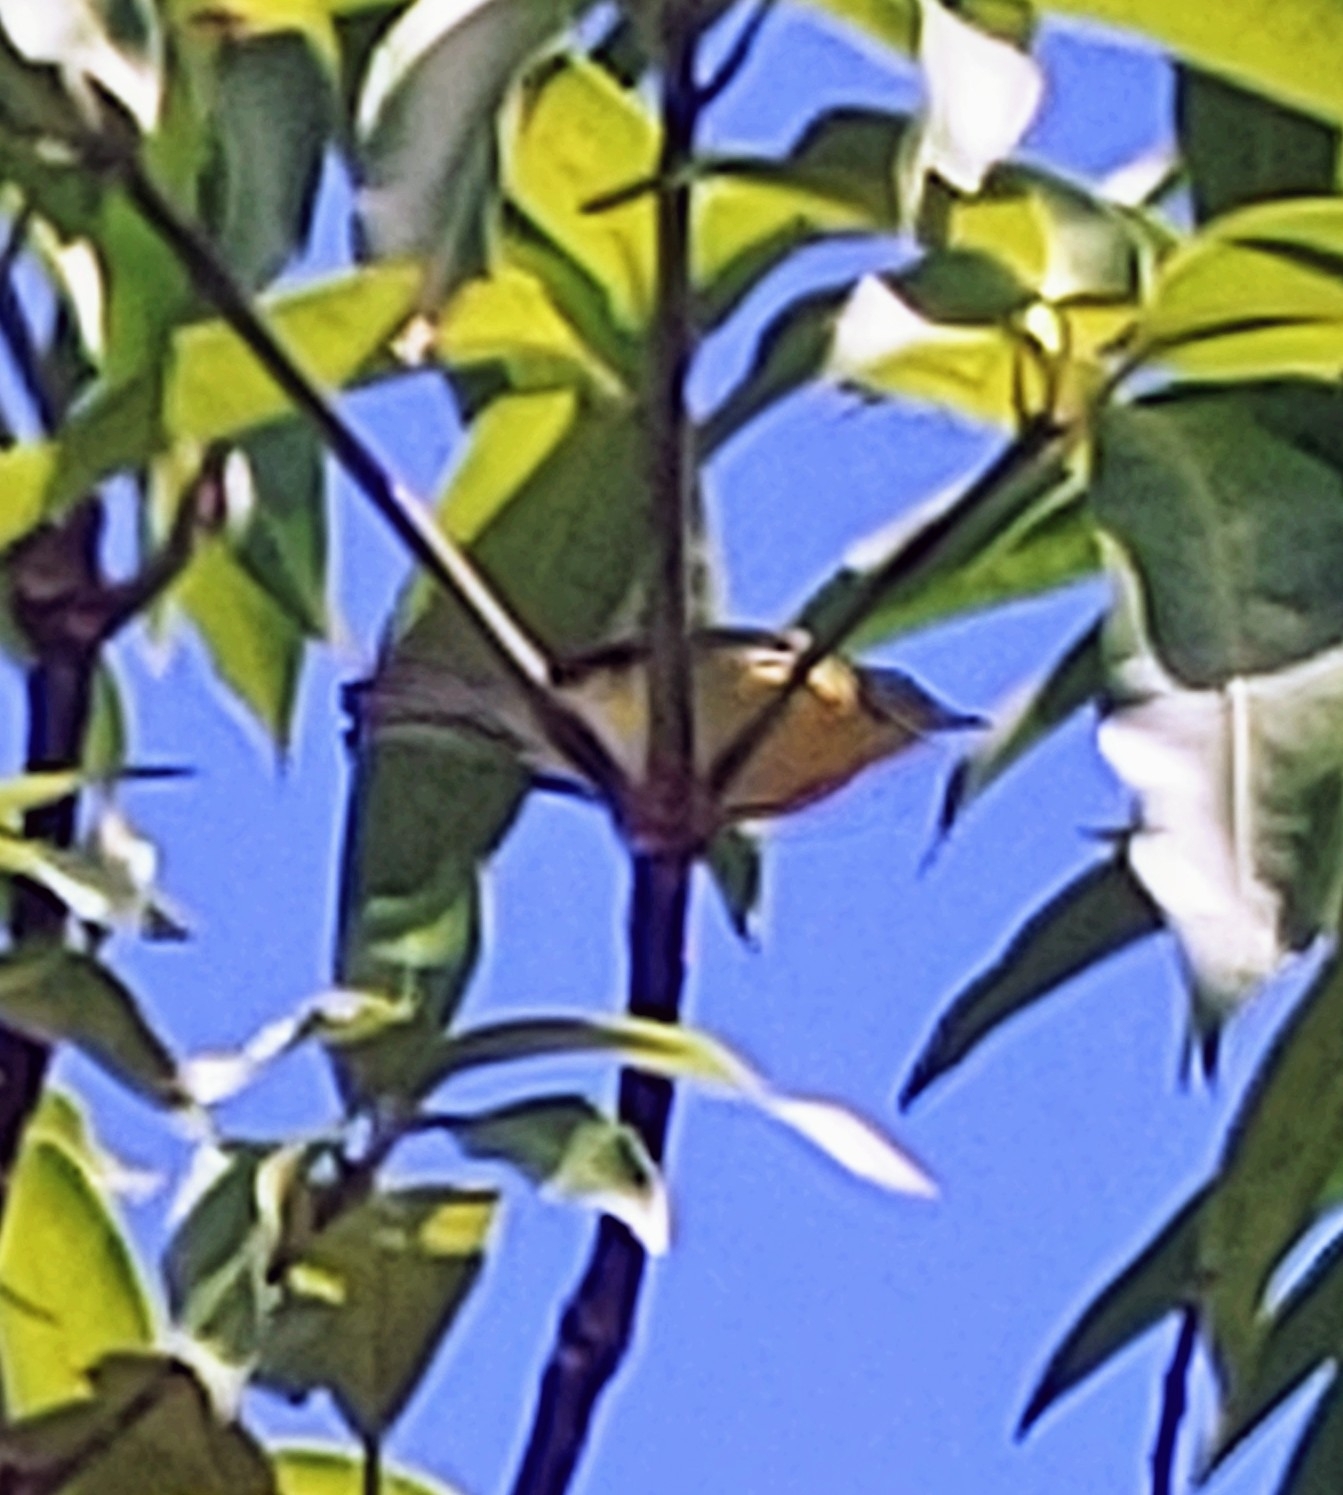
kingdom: Animalia
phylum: Chordata
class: Aves
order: Passeriformes
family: Parulidae
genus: Setophaga
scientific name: Setophaga discolor
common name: Prairie warbler
